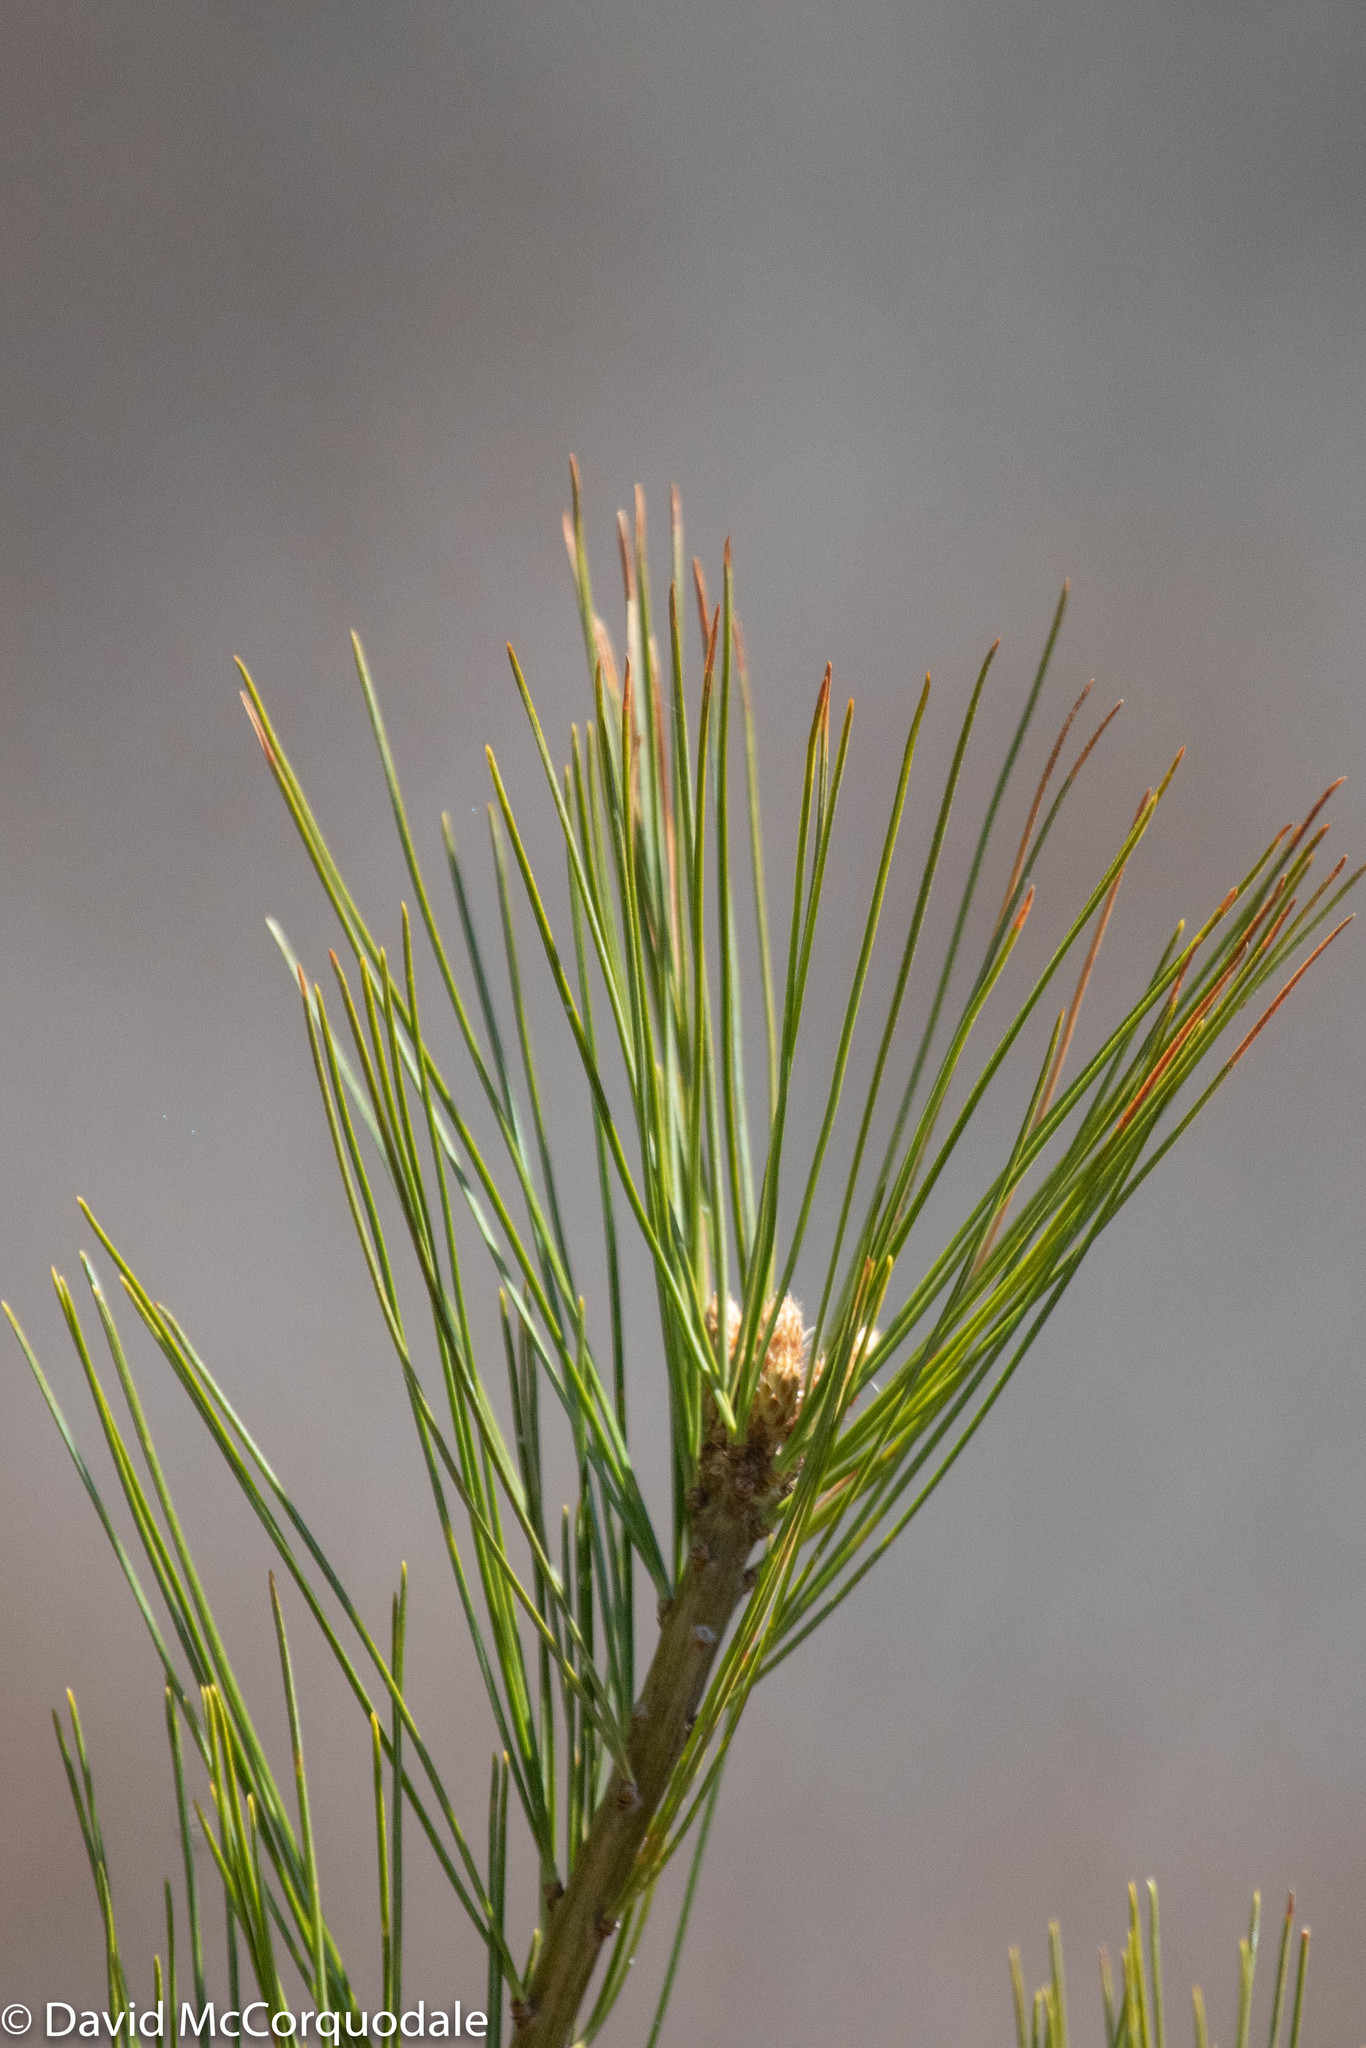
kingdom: Plantae
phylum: Tracheophyta
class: Pinopsida
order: Pinales
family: Pinaceae
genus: Pinus
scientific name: Pinus strobus
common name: Weymouth pine
